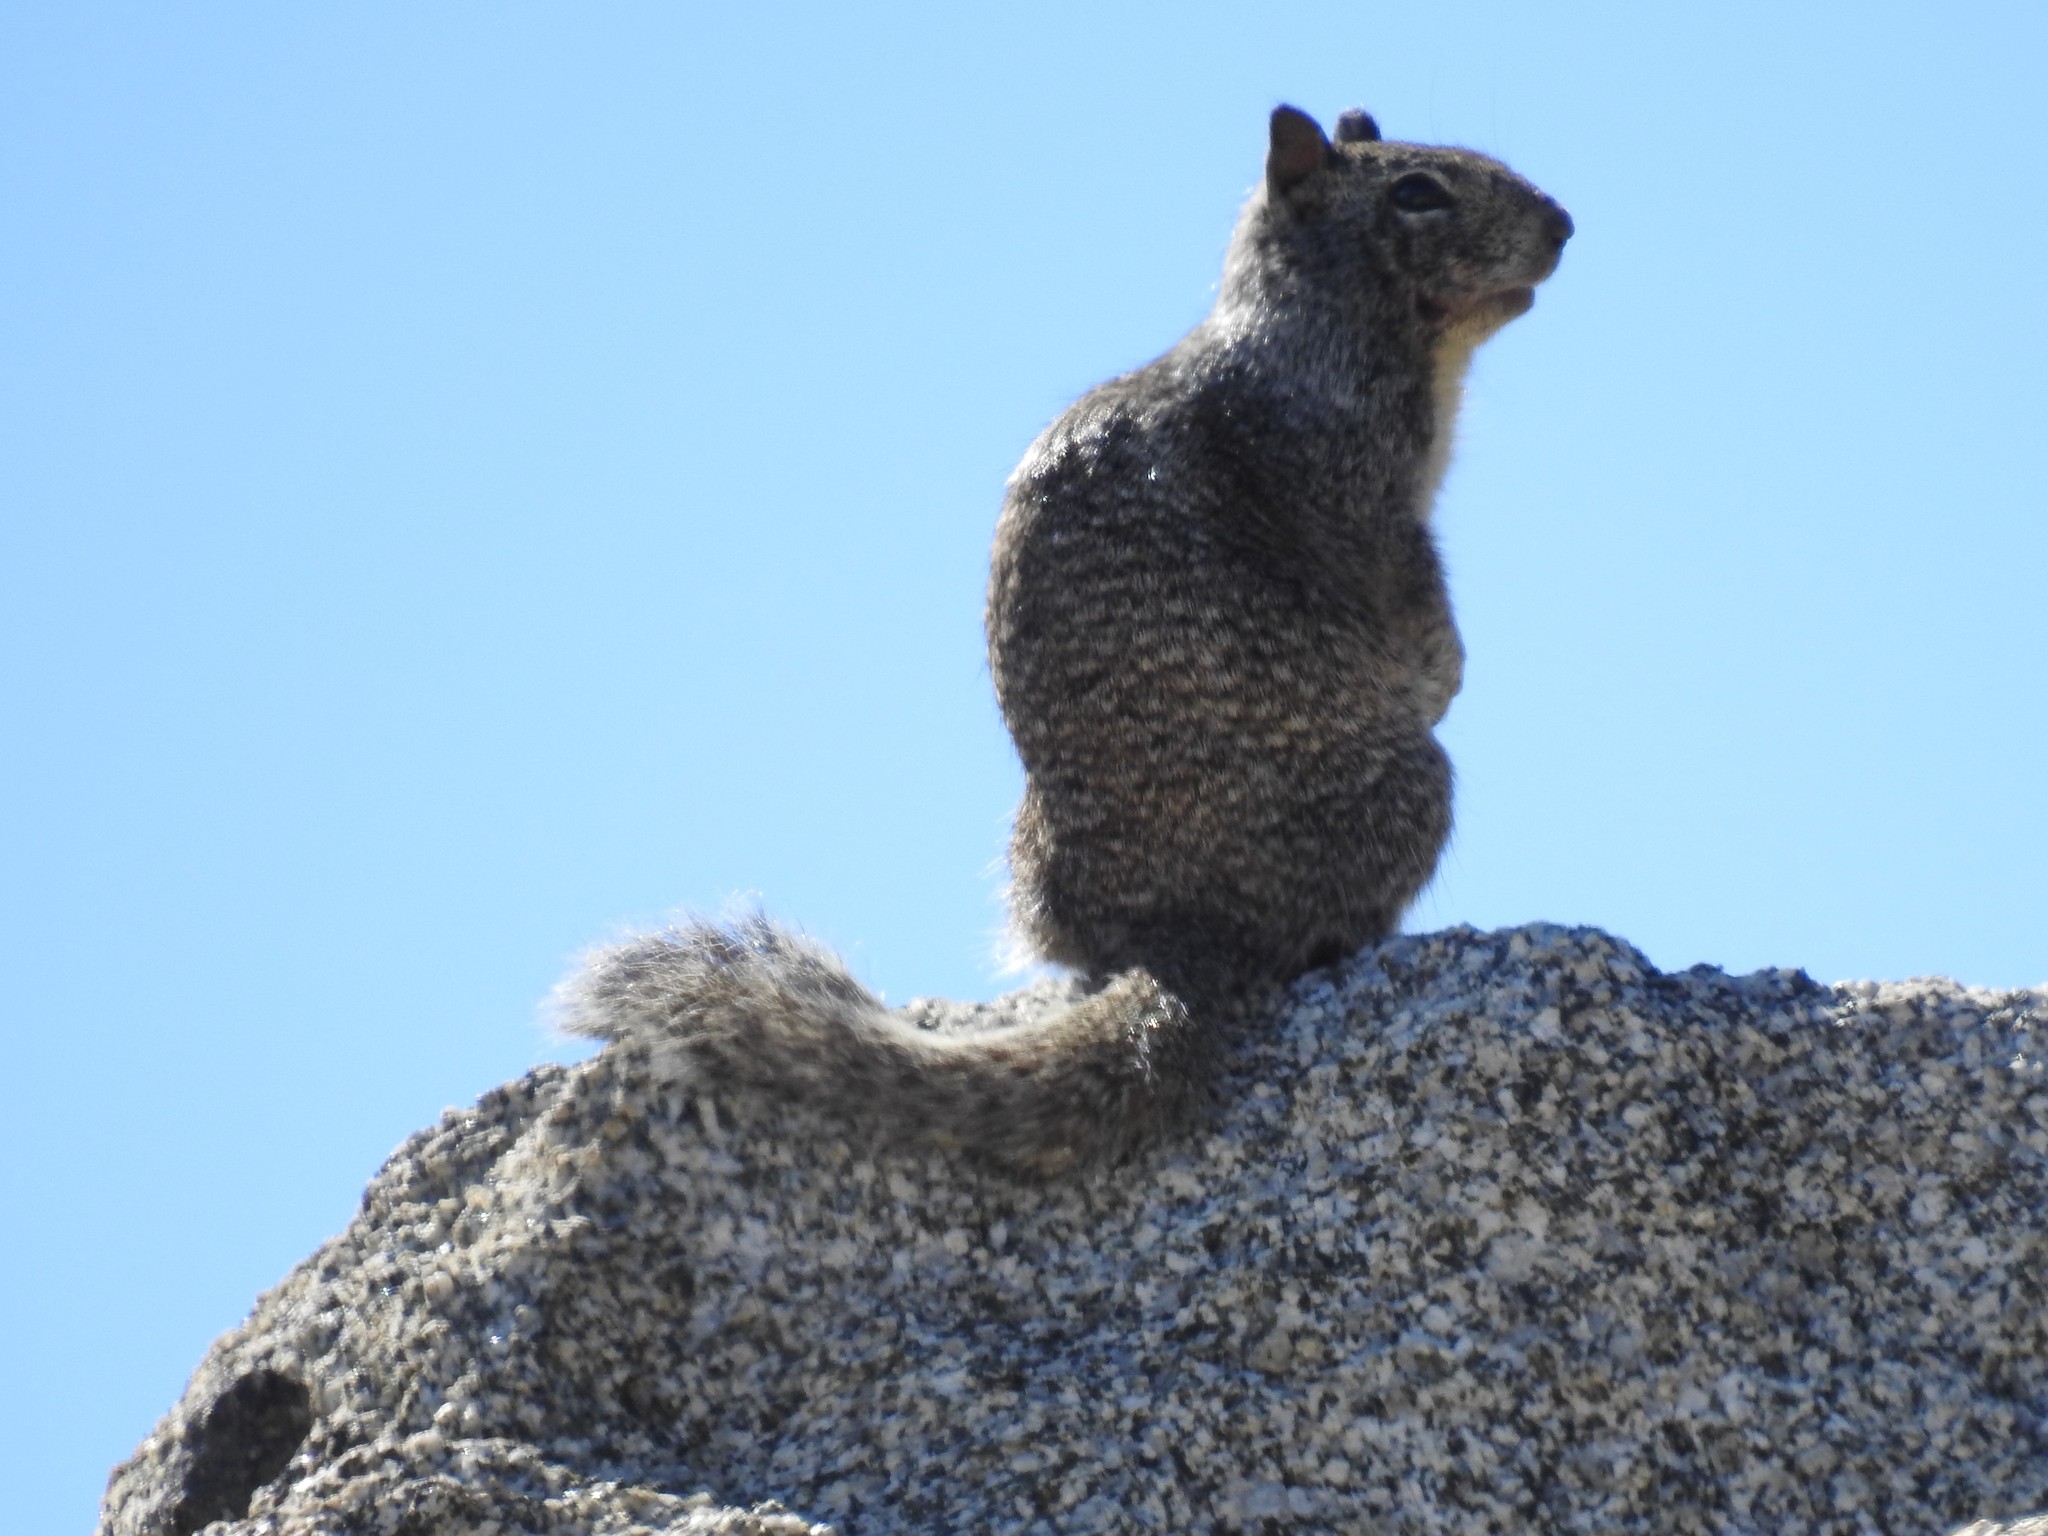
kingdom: Animalia
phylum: Chordata
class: Mammalia
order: Rodentia
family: Sciuridae
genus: Otospermophilus
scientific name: Otospermophilus beecheyi
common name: California ground squirrel
